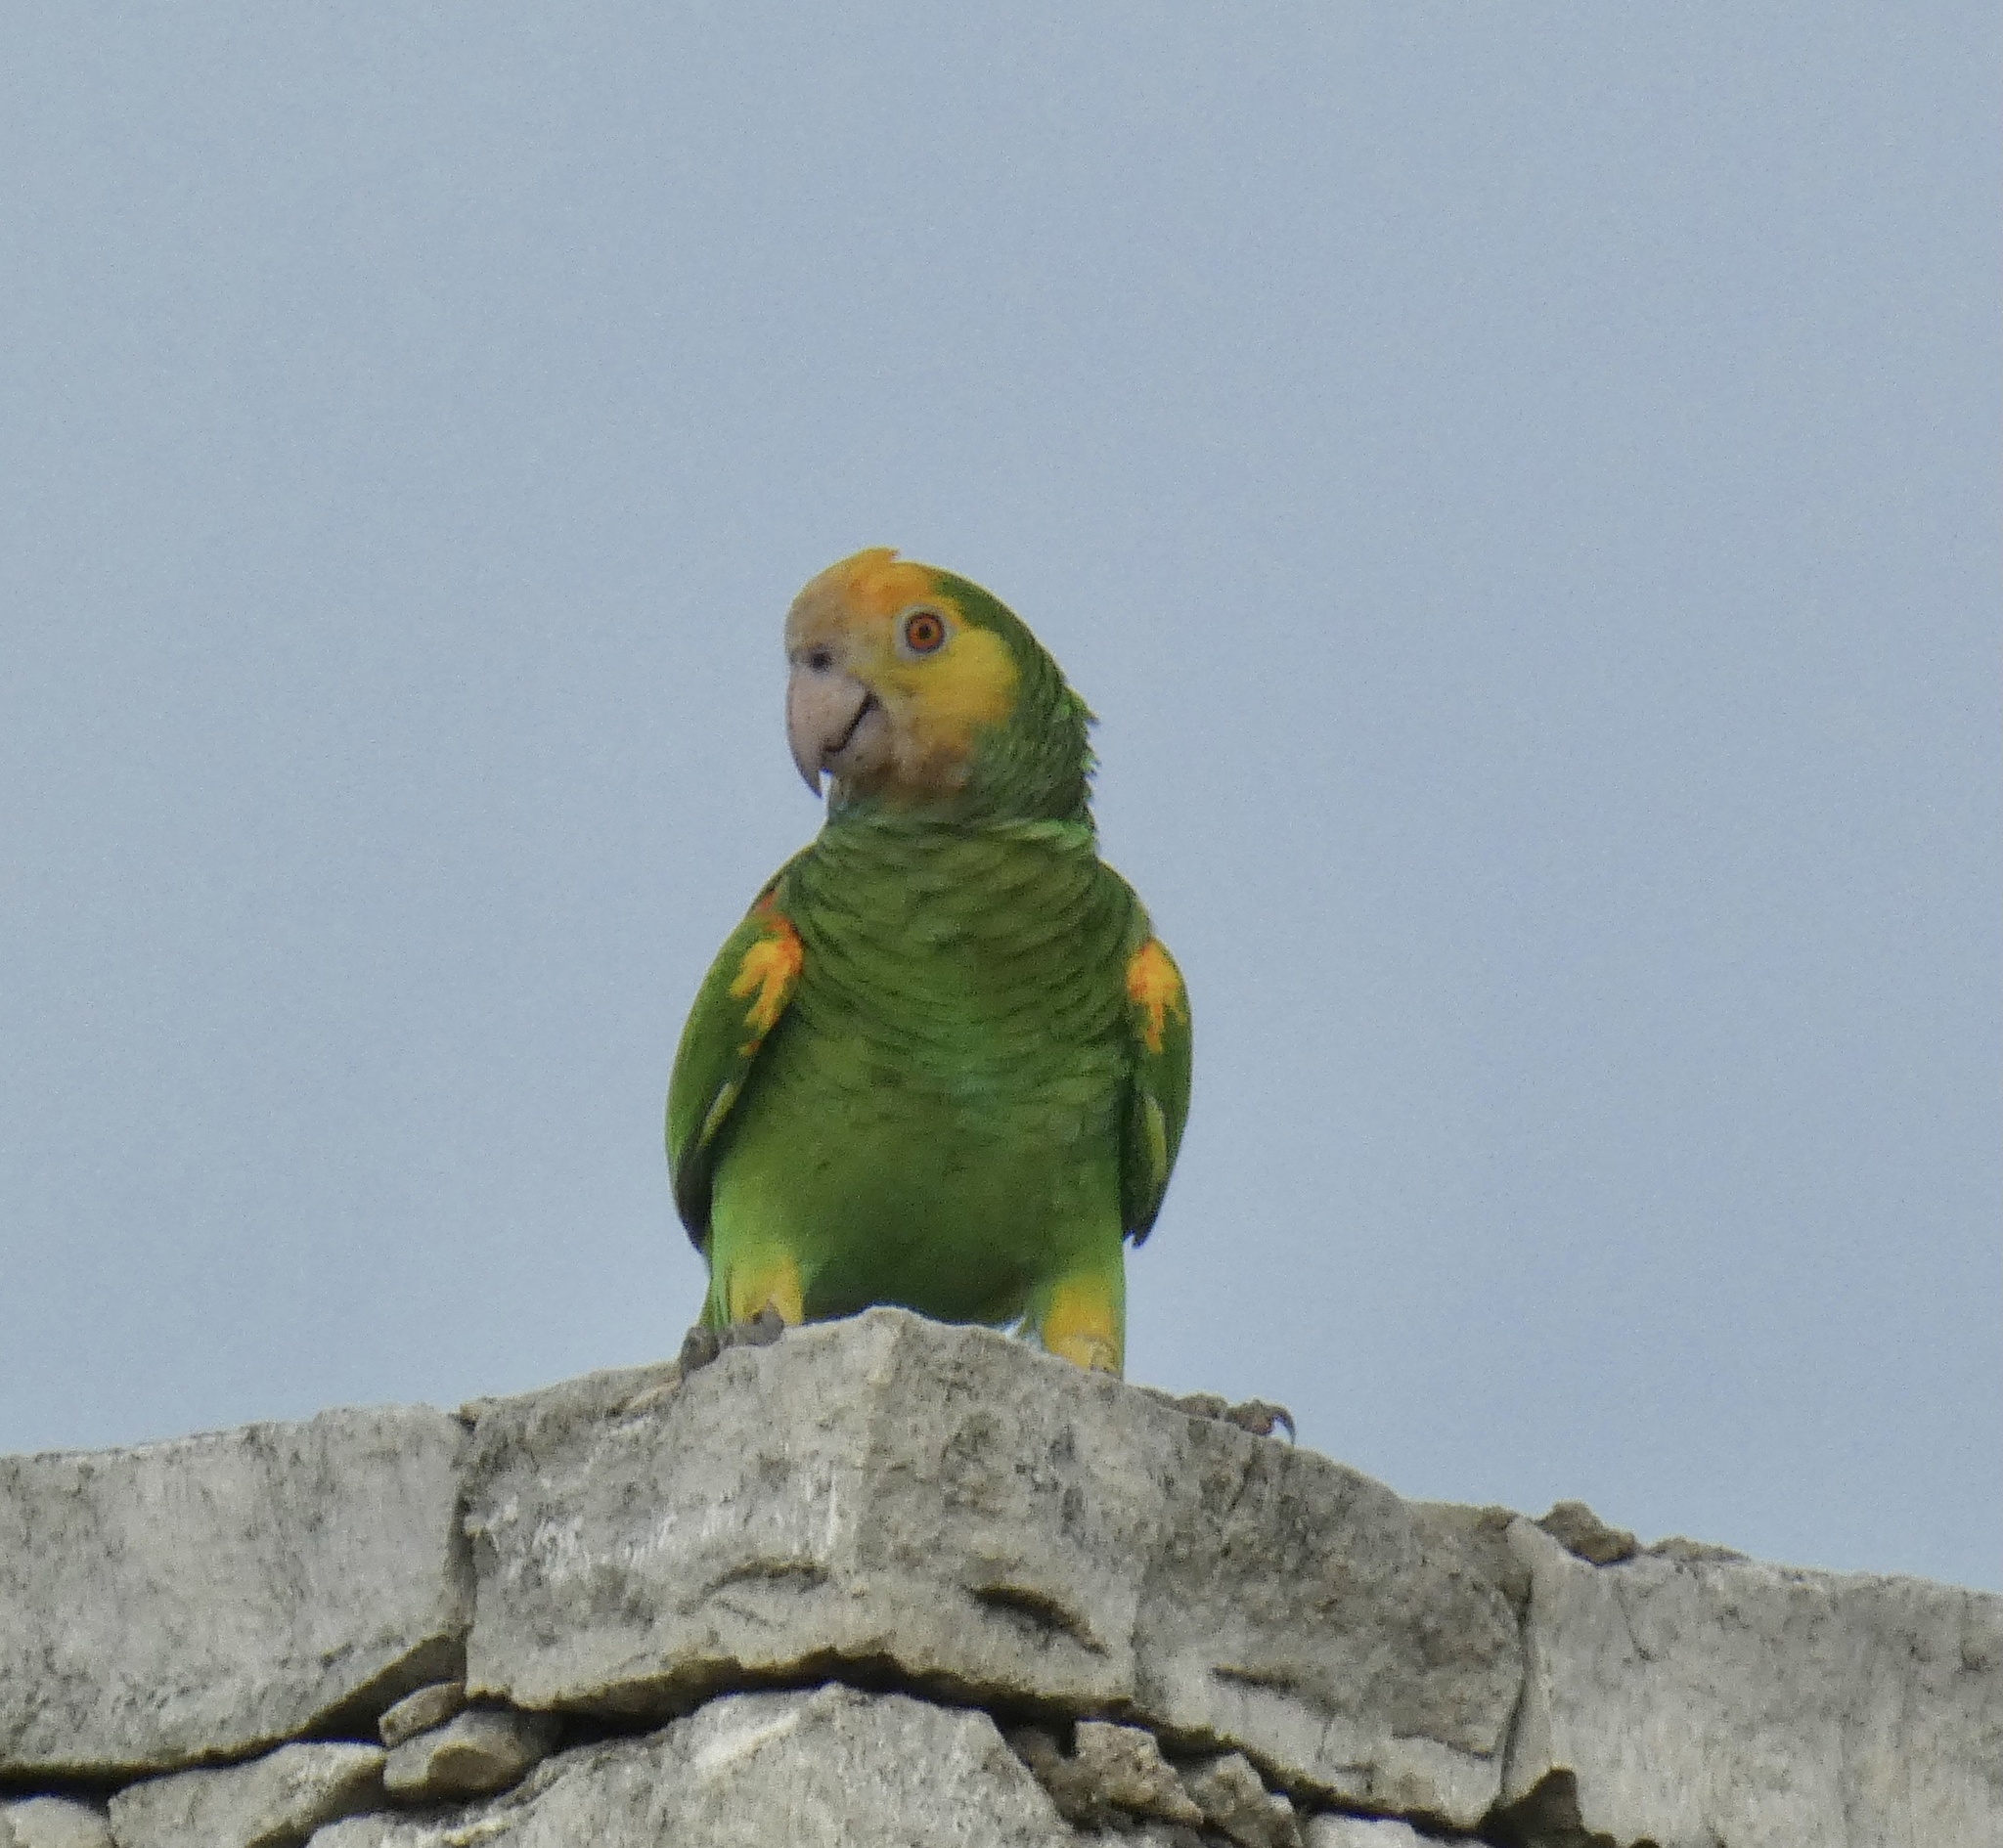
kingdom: Animalia
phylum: Chordata
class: Aves
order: Psittaciformes
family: Psittacidae
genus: Amazona
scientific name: Amazona barbadensis
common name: Yellow-shouldered amazon
